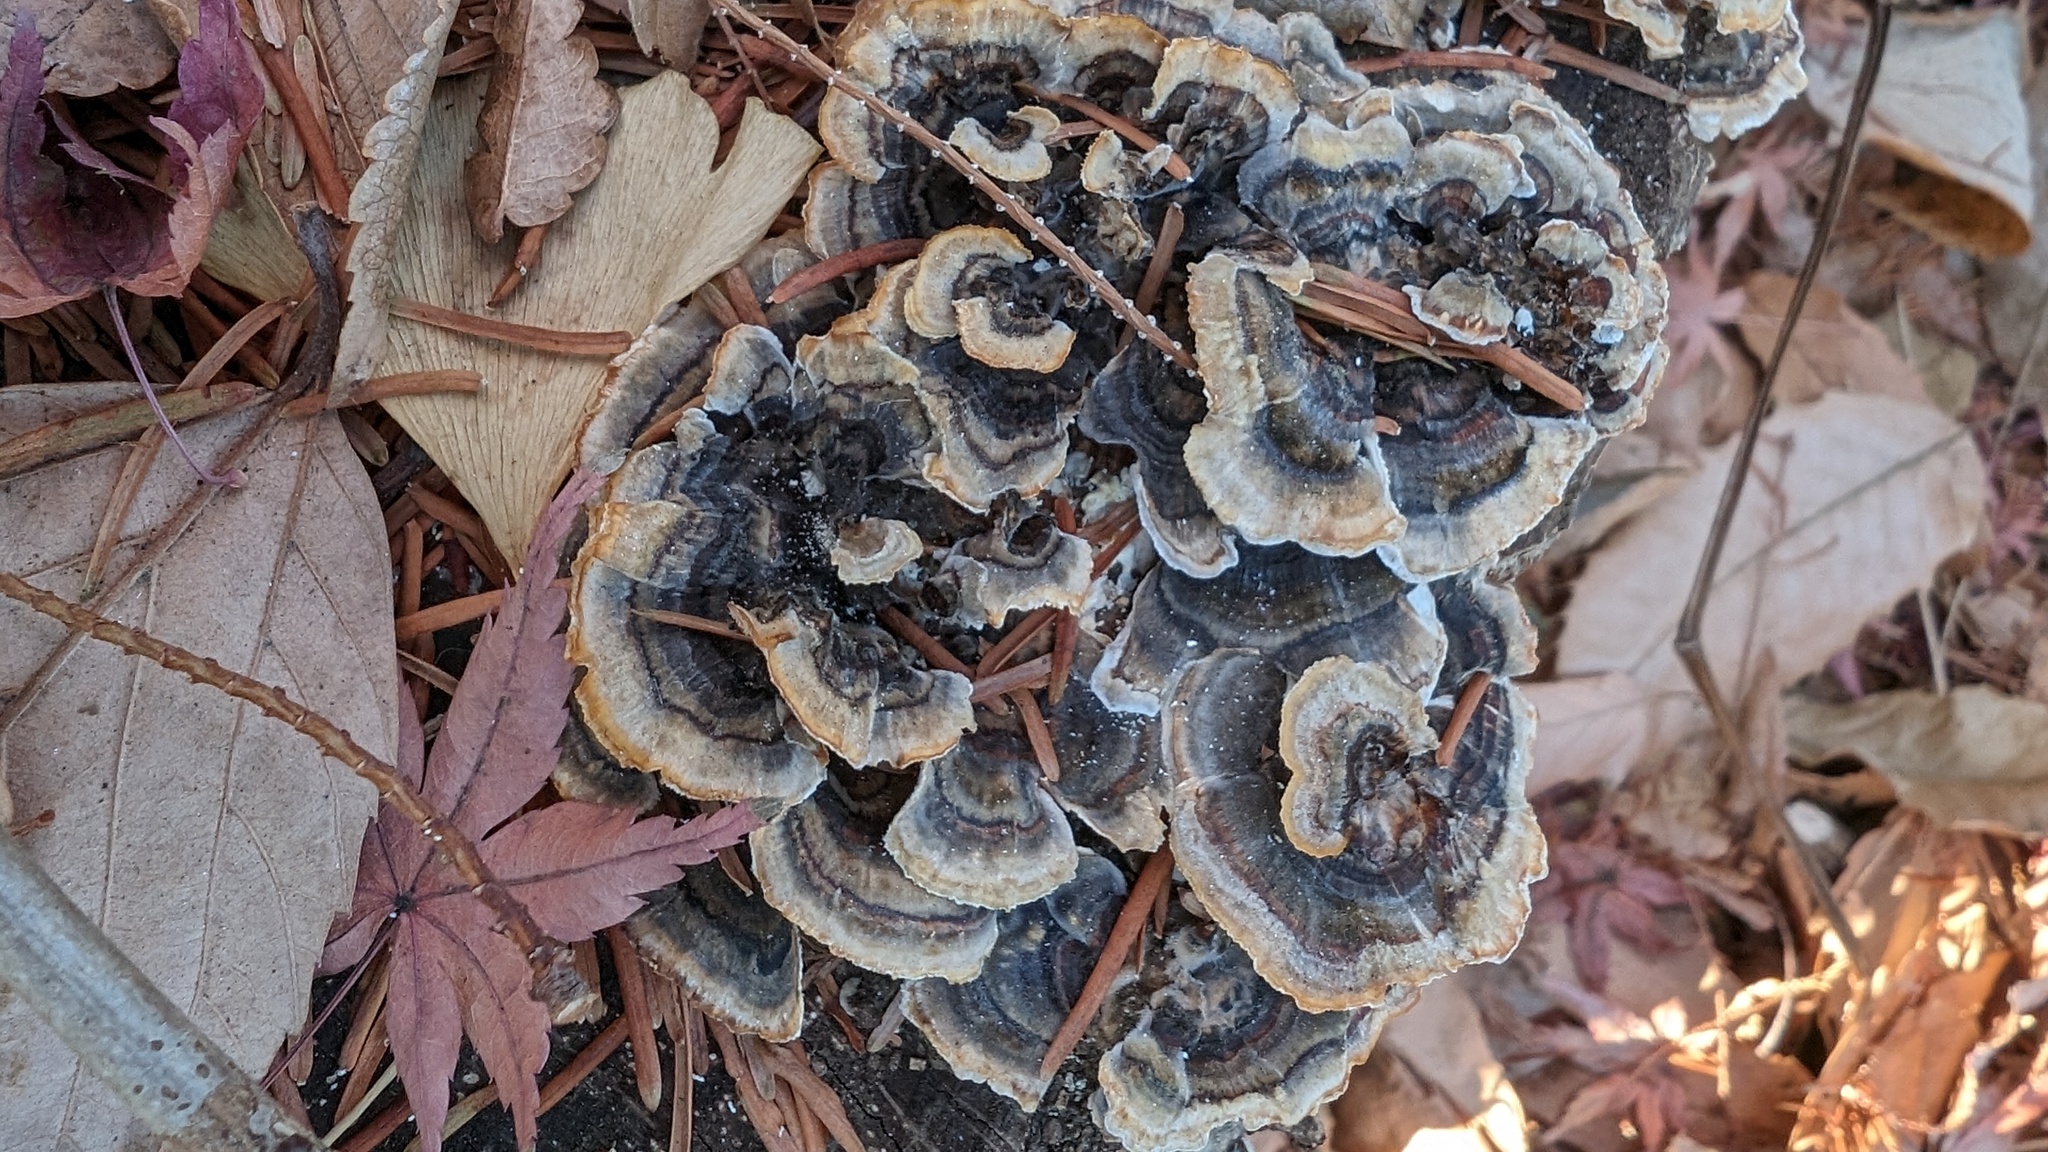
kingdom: Fungi
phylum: Basidiomycota
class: Agaricomycetes
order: Polyporales
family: Polyporaceae
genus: Trametes
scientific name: Trametes versicolor
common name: Turkeytail
